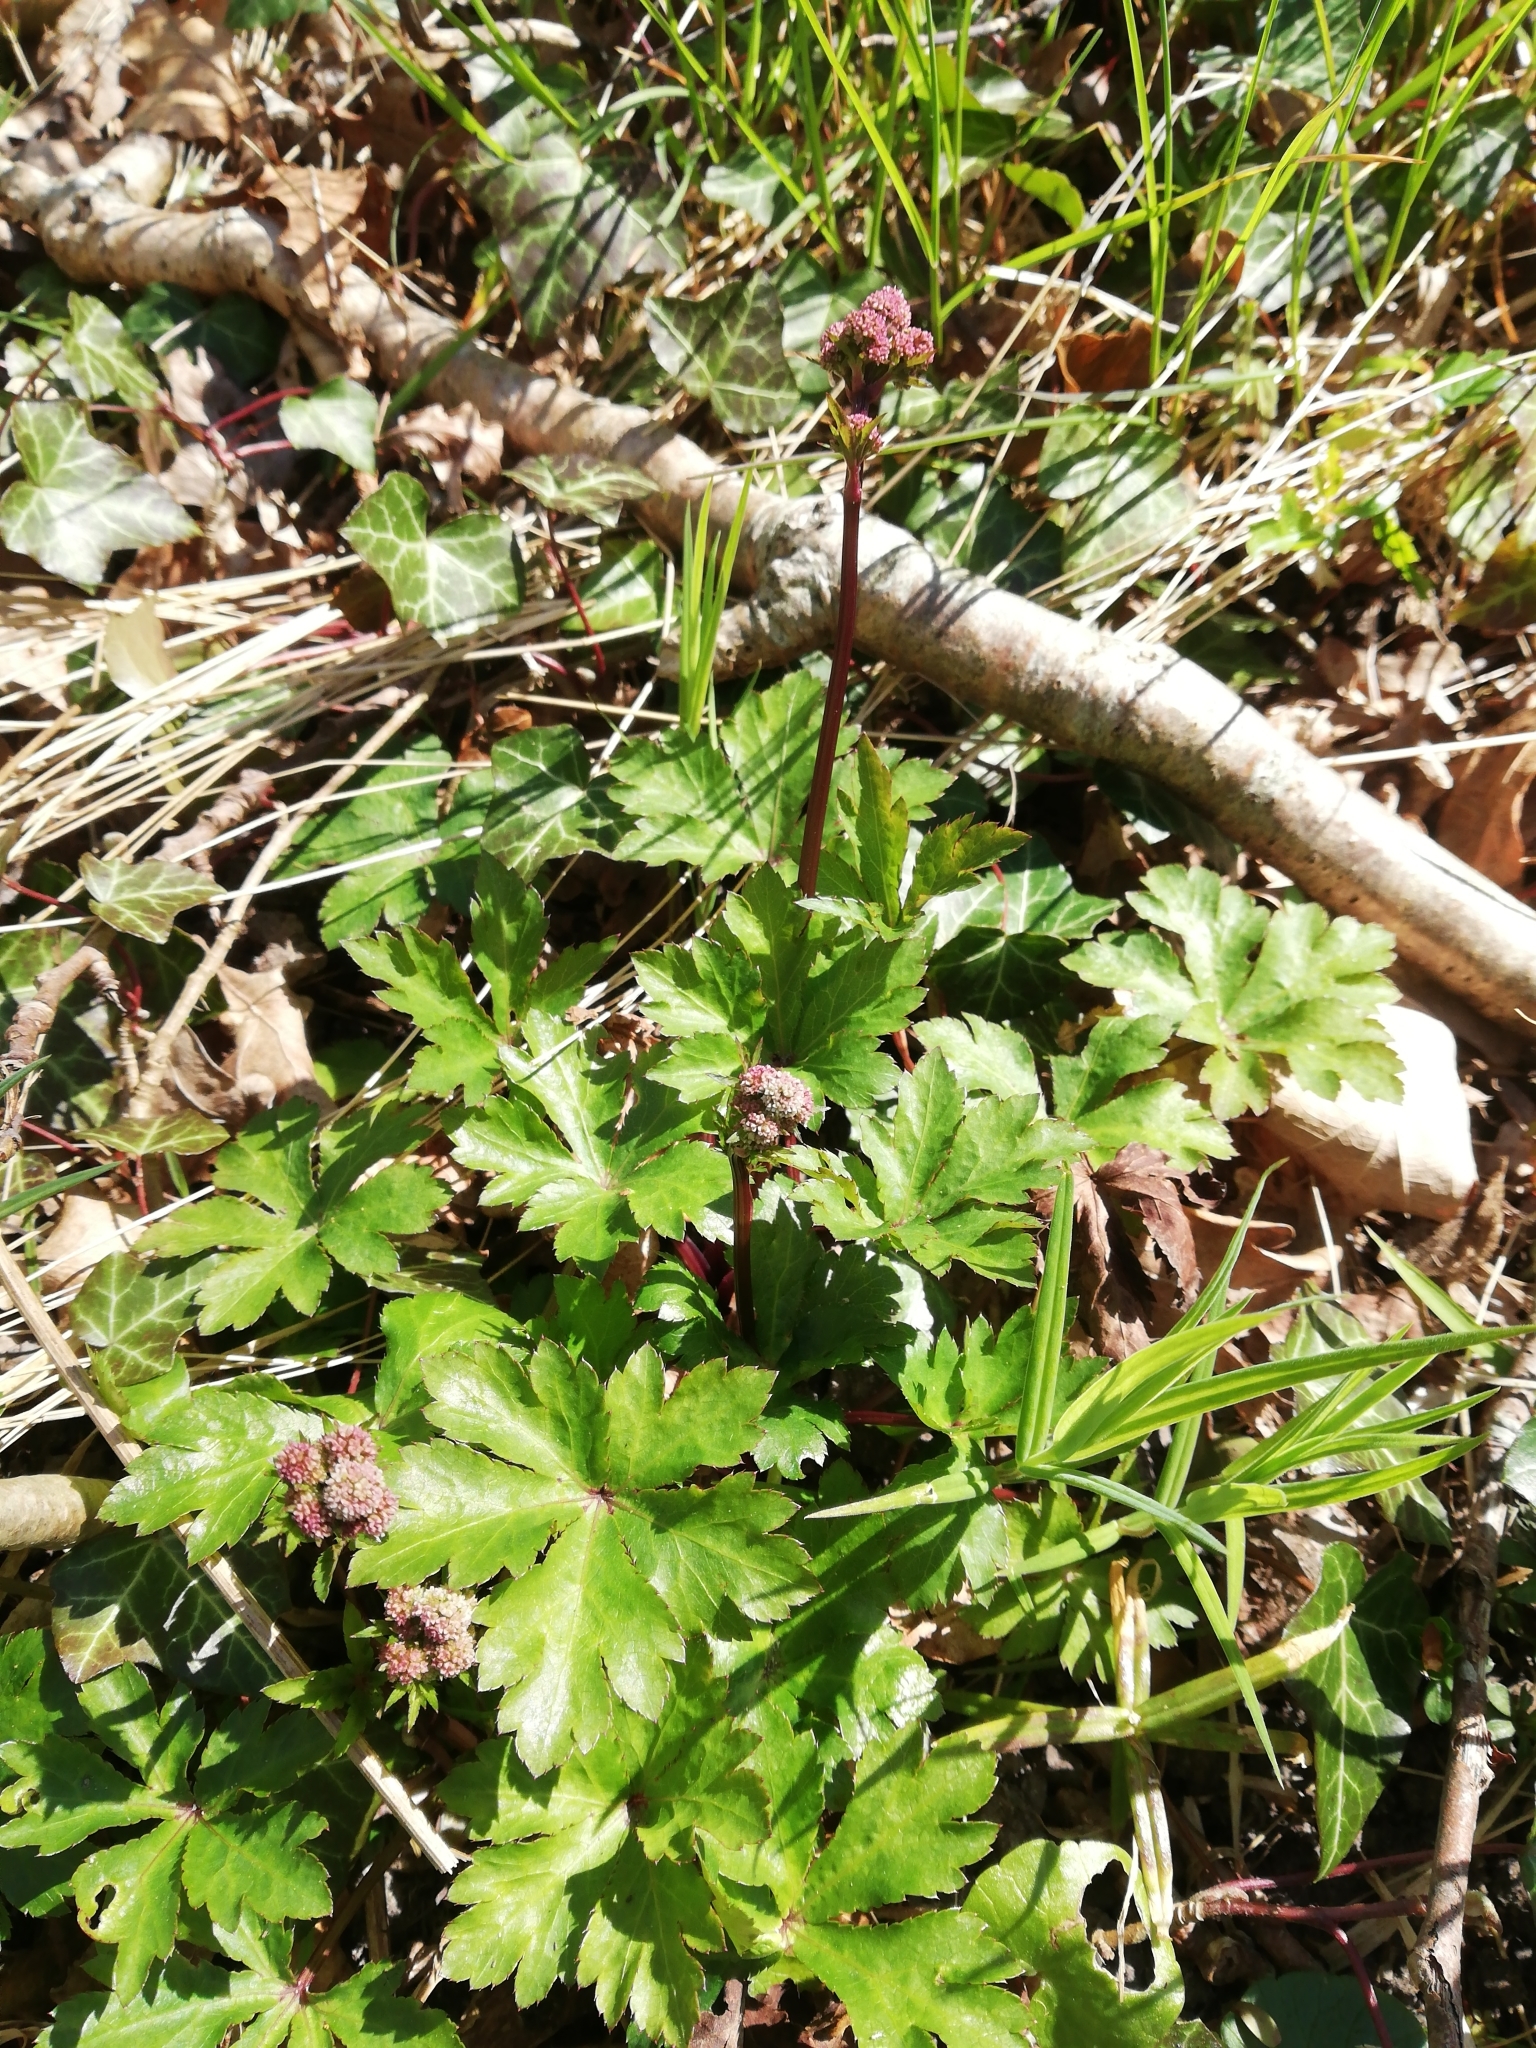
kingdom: Plantae
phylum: Tracheophyta
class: Magnoliopsida
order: Apiales
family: Apiaceae
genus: Sanicula
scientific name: Sanicula europaea
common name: Sanicle
